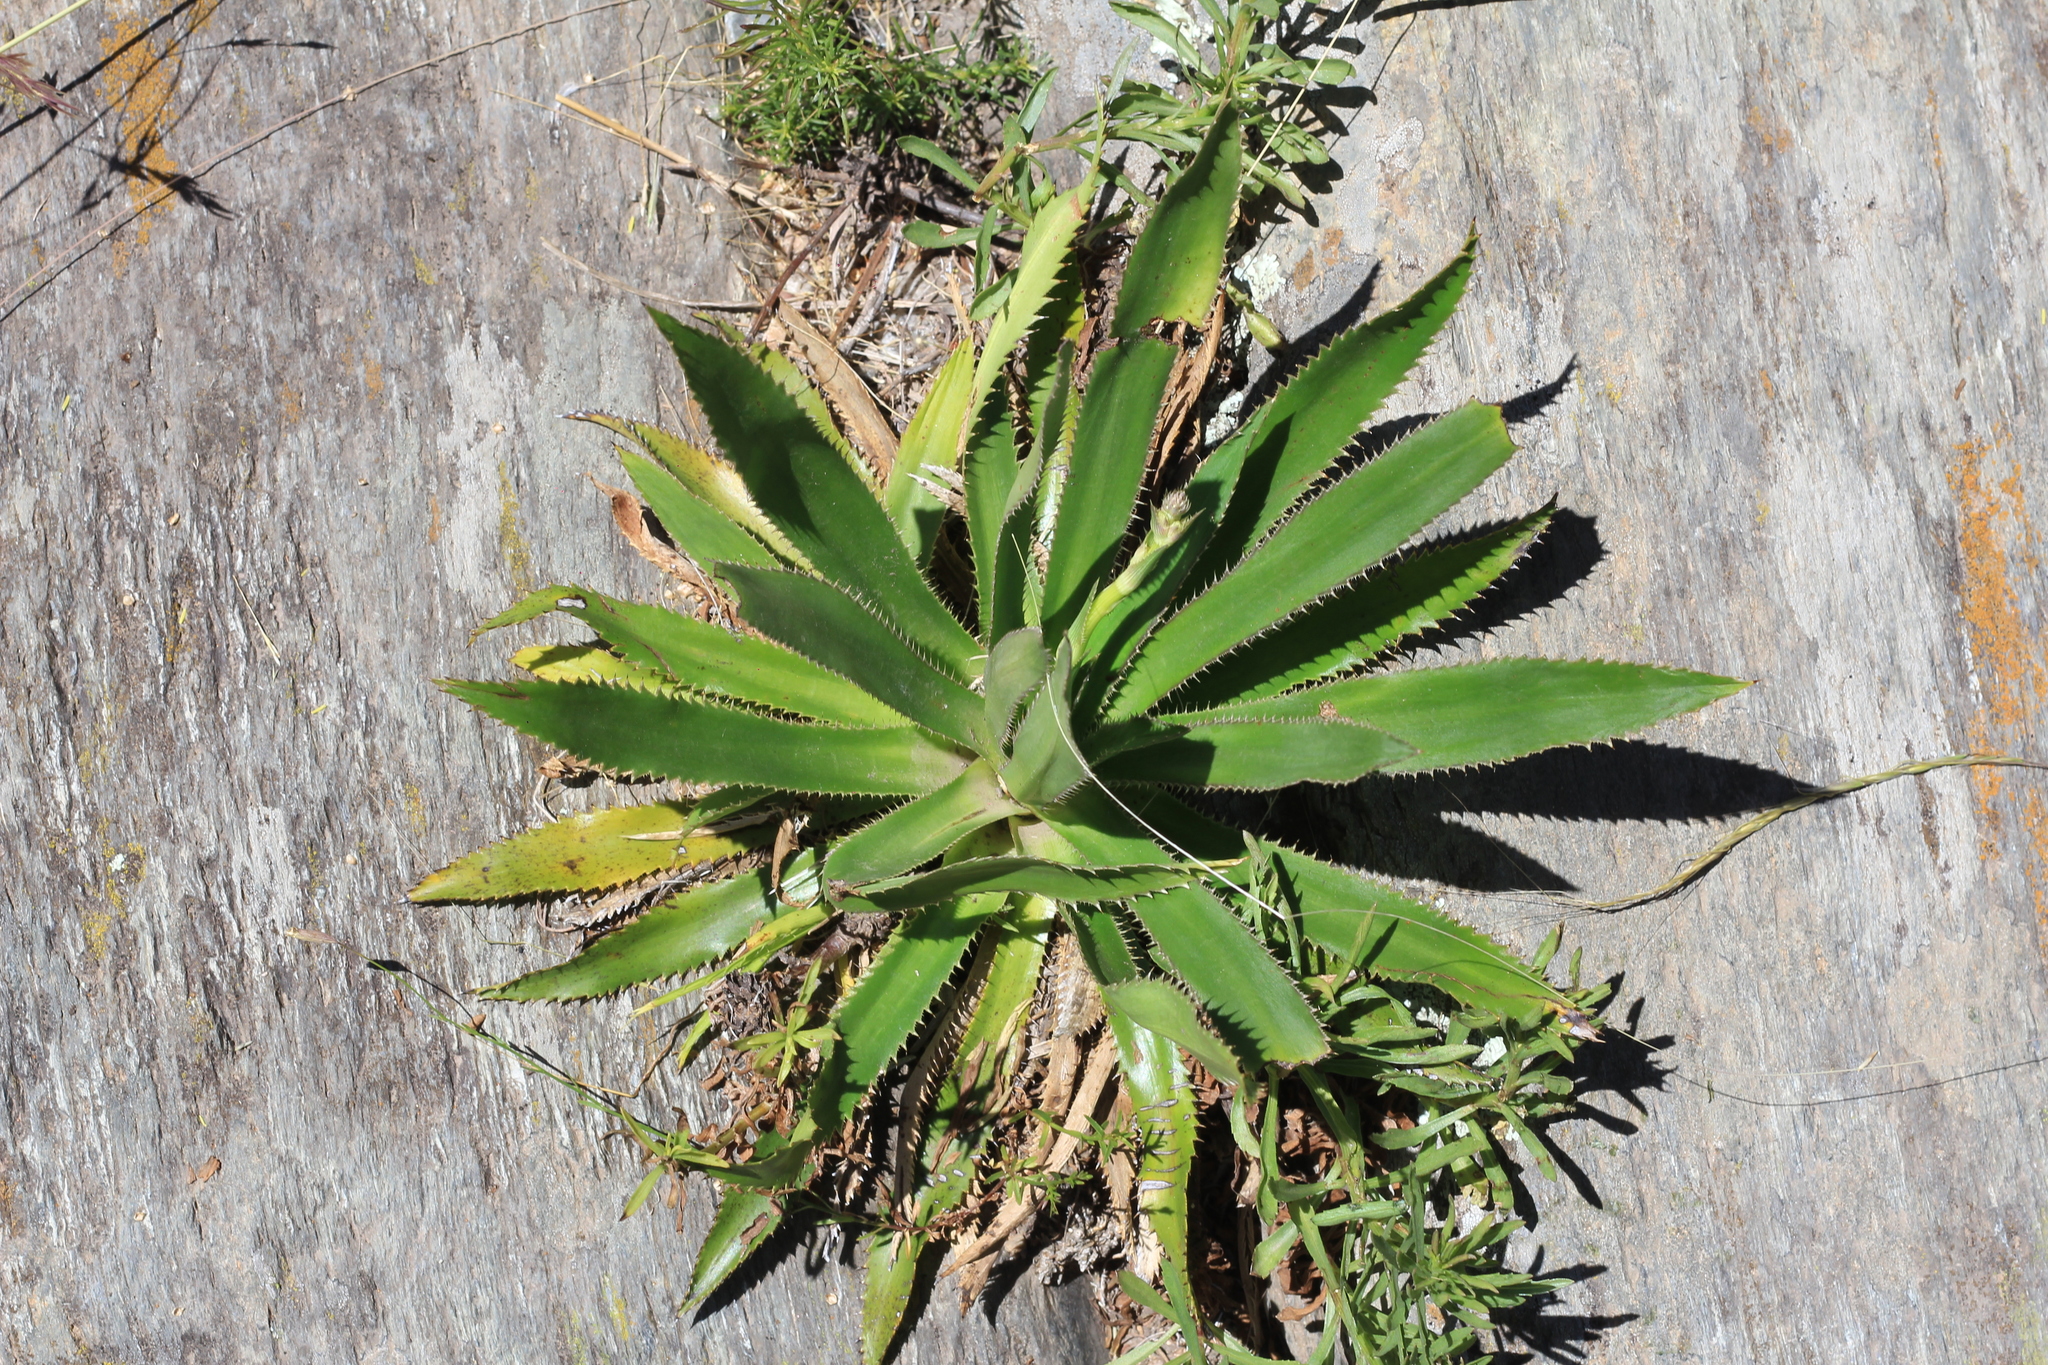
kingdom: Plantae
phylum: Tracheophyta
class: Magnoliopsida
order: Apiales
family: Apiaceae
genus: Eryngium
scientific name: Eryngium elegans
